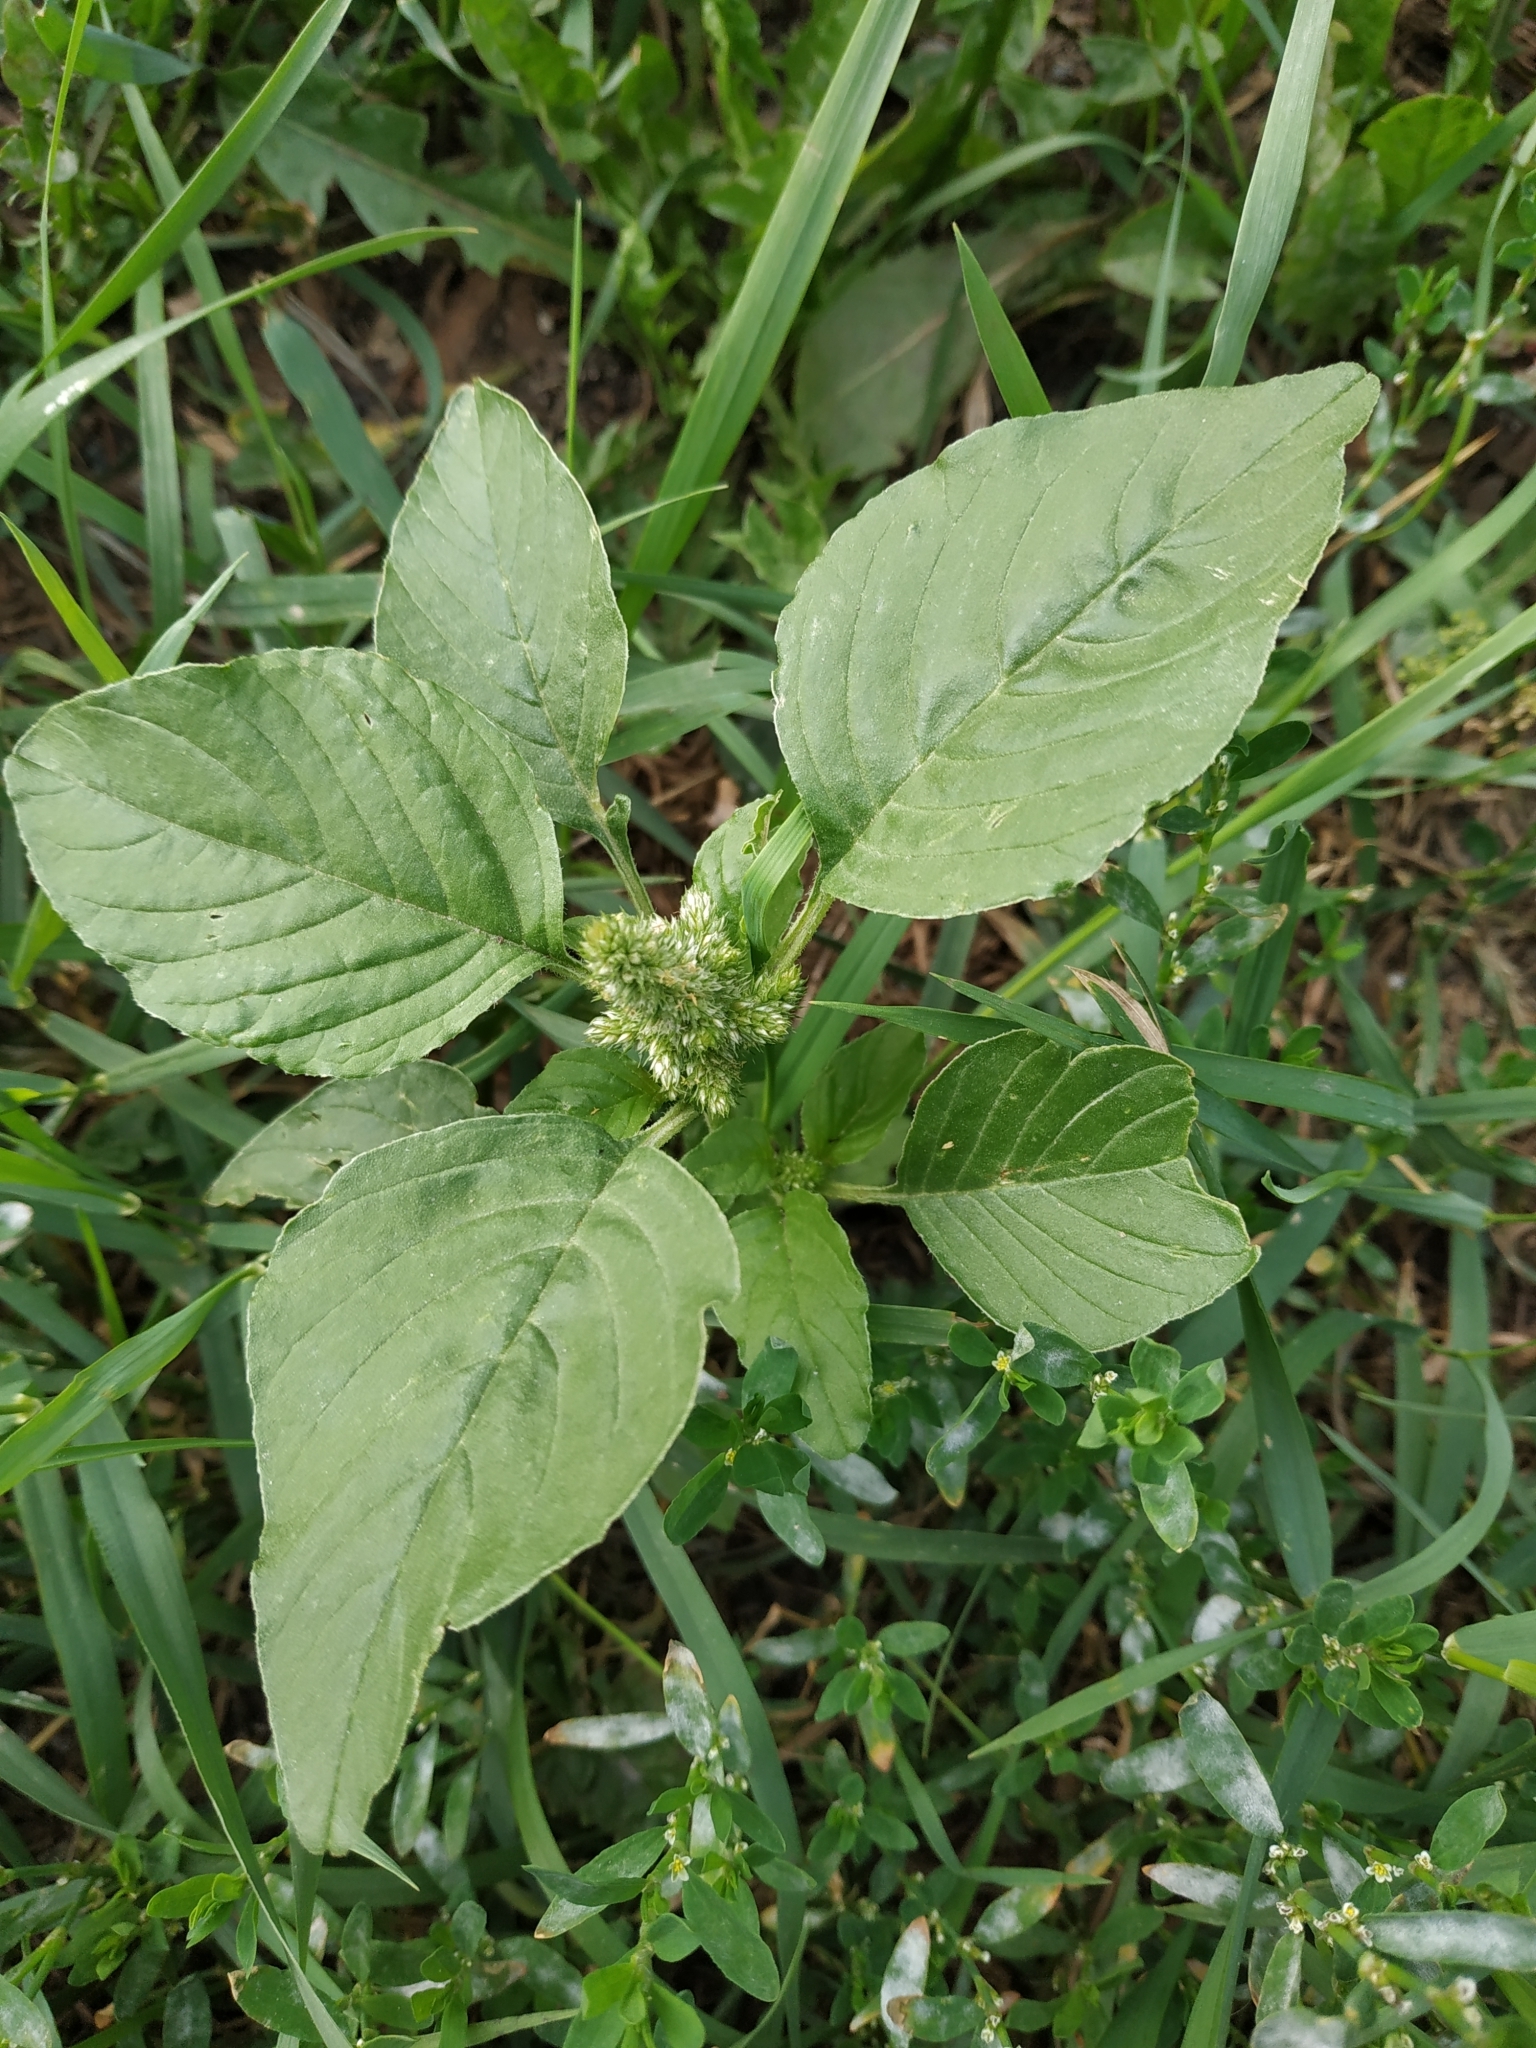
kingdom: Plantae
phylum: Tracheophyta
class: Magnoliopsida
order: Caryophyllales
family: Amaranthaceae
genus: Amaranthus
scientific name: Amaranthus retroflexus
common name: Redroot amaranth
